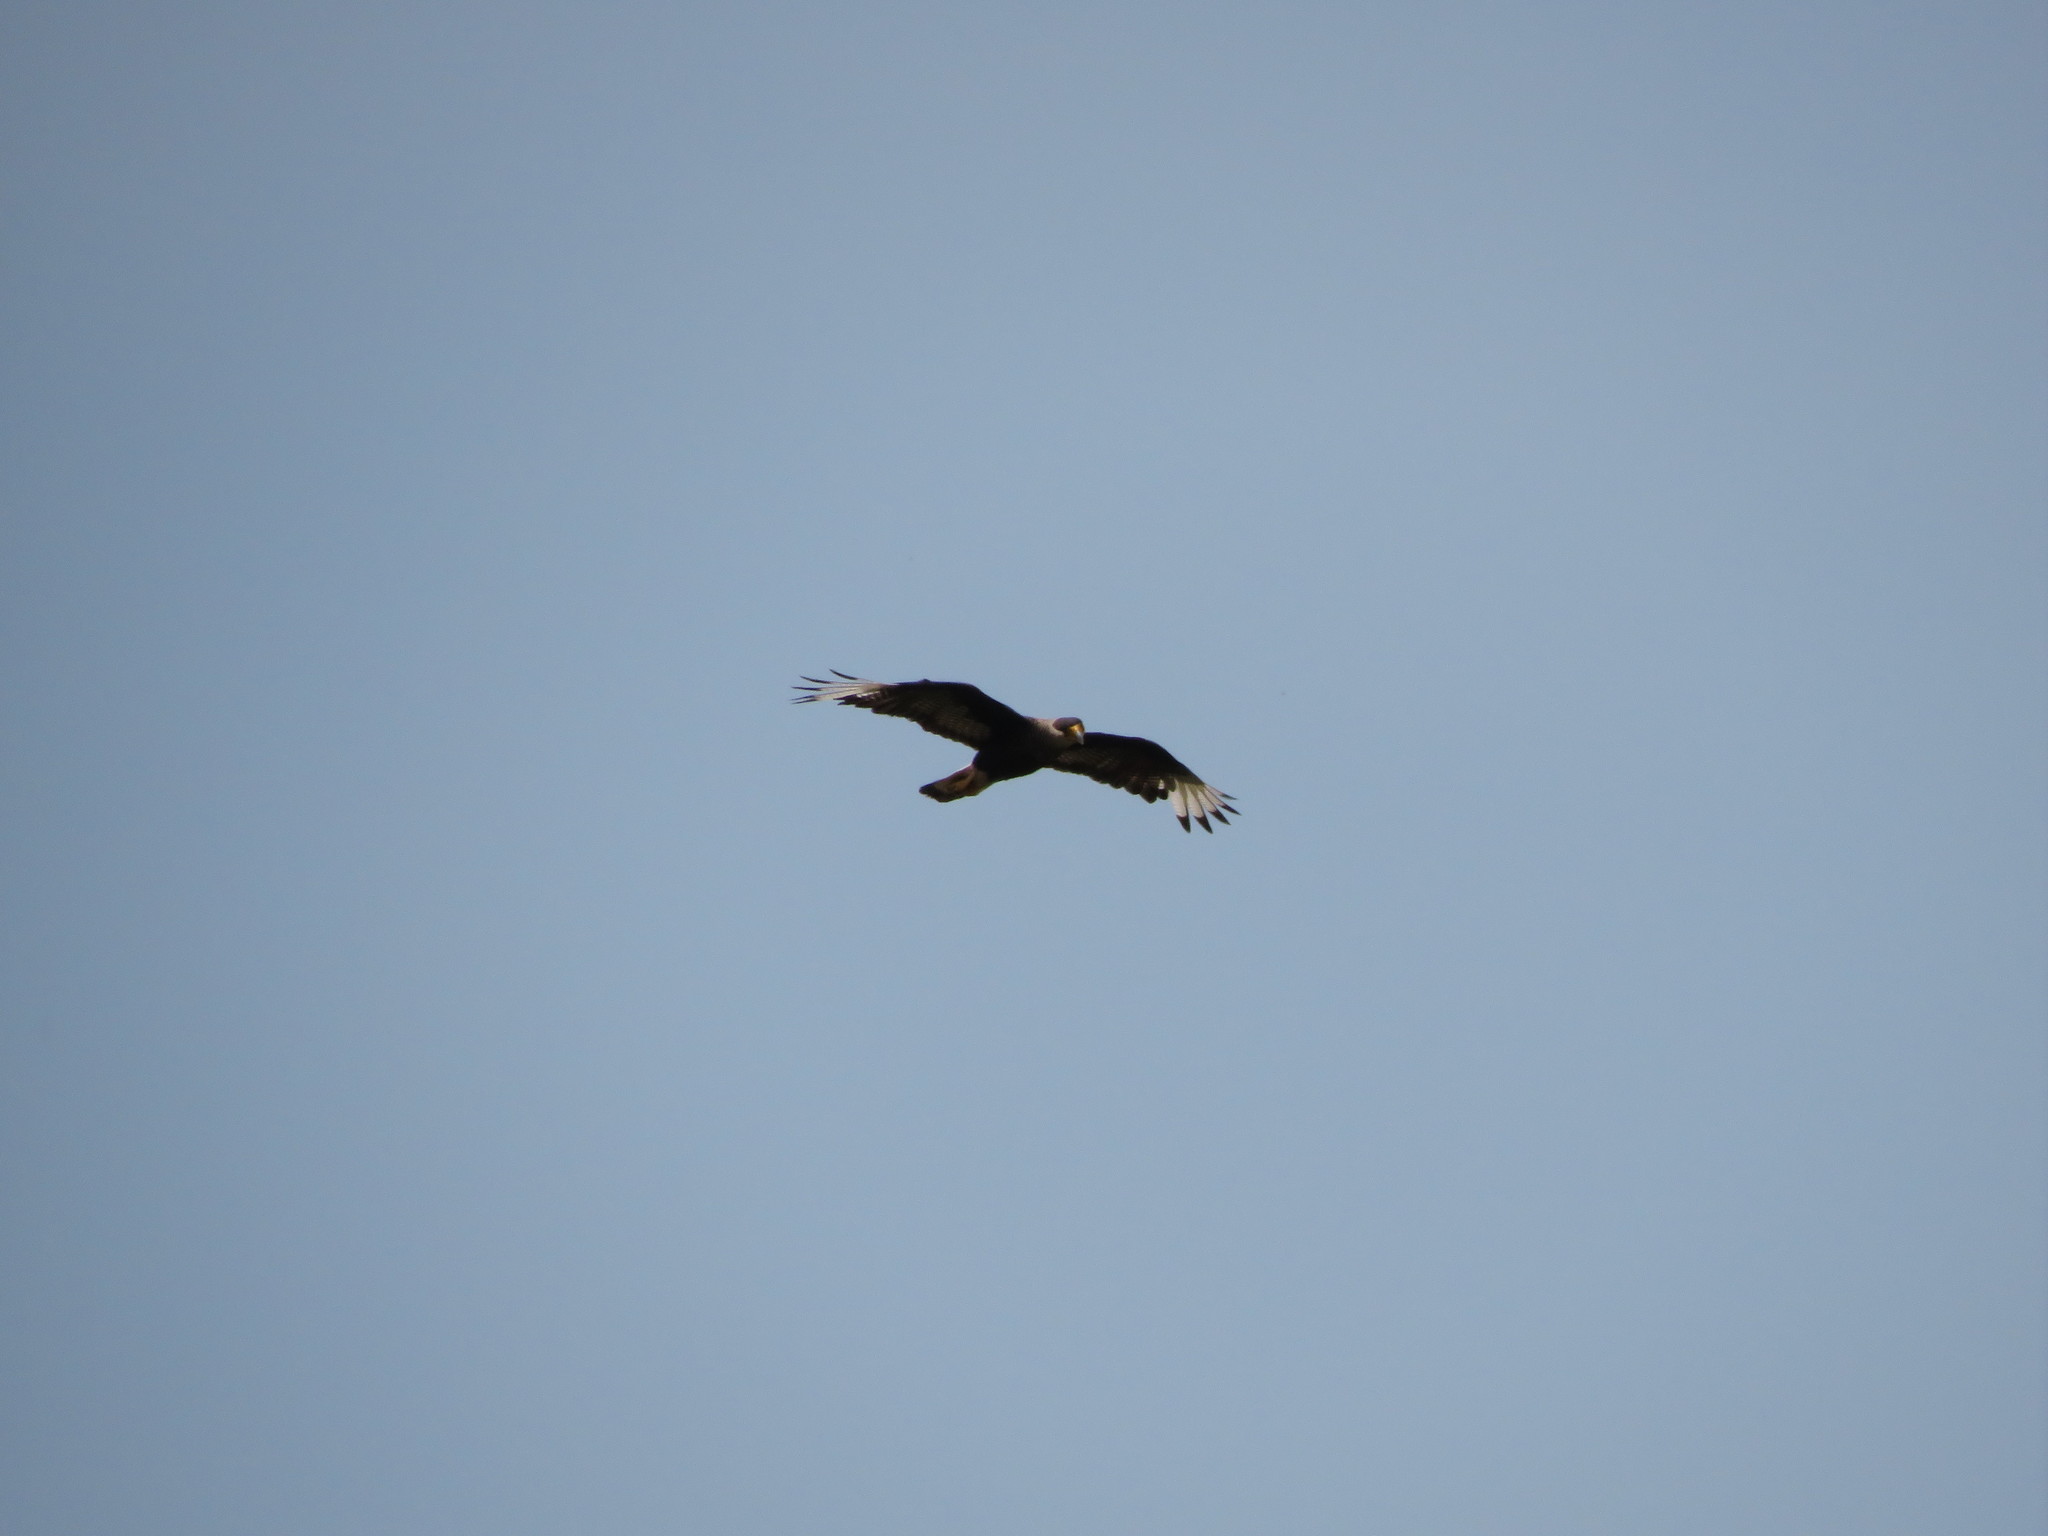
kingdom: Animalia
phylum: Chordata
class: Aves
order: Falconiformes
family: Falconidae
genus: Caracara
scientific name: Caracara plancus
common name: Southern caracara
